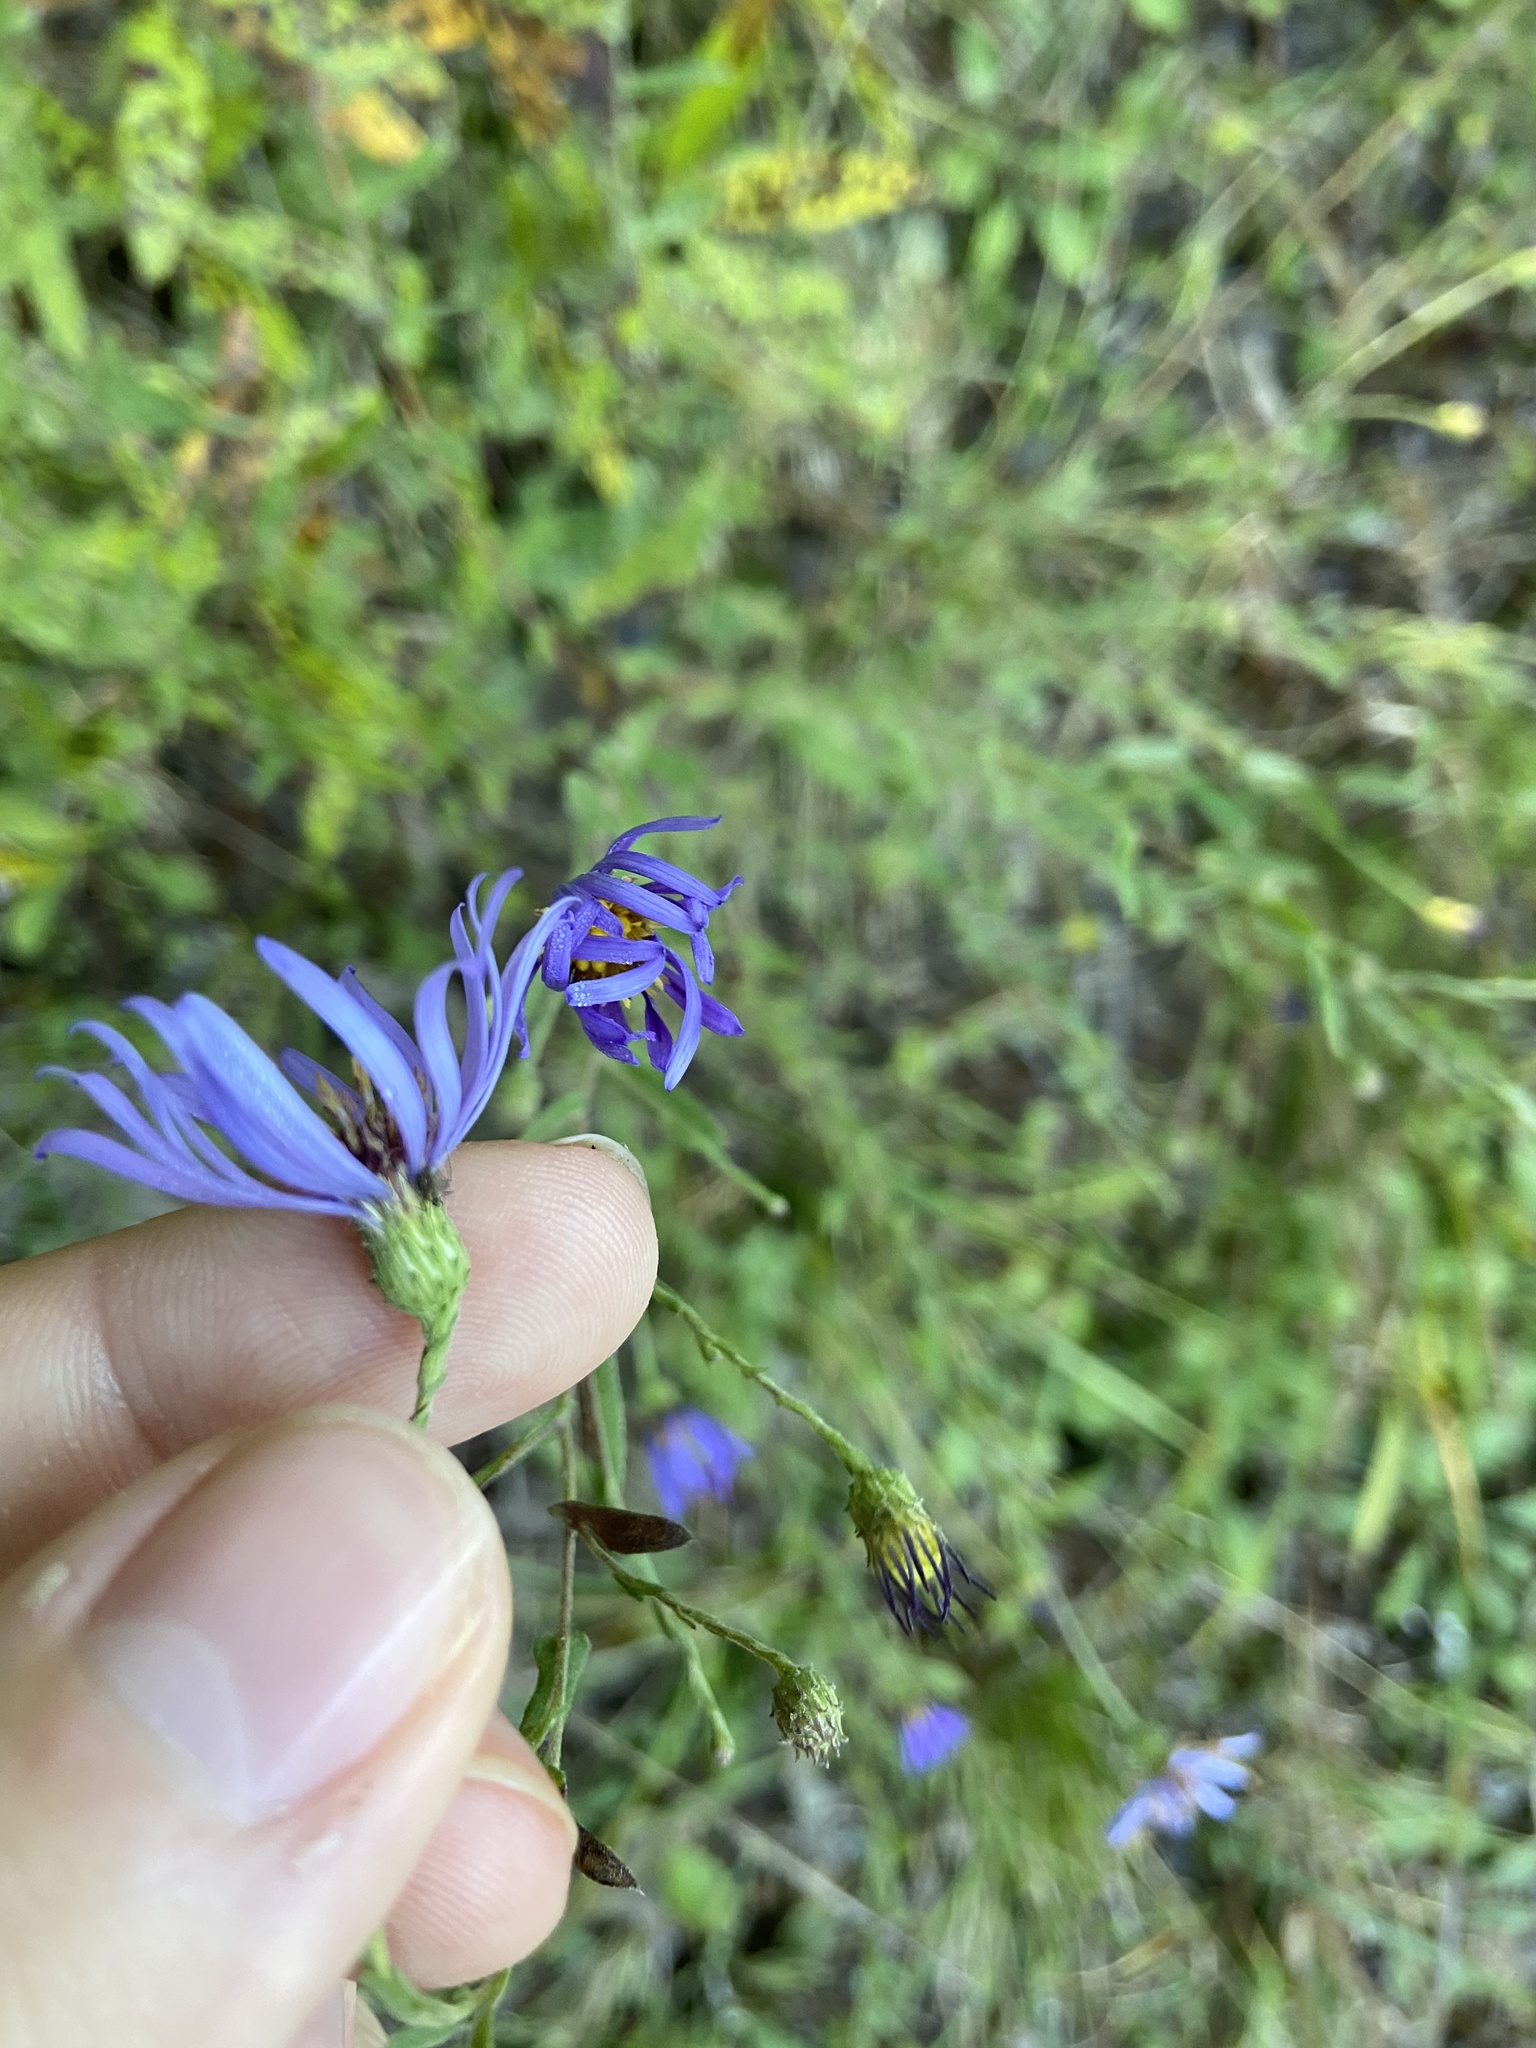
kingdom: Plantae
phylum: Tracheophyta
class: Magnoliopsida
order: Asterales
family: Asteraceae
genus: Symphyotrichum
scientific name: Symphyotrichum patens
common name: Late purple aster
